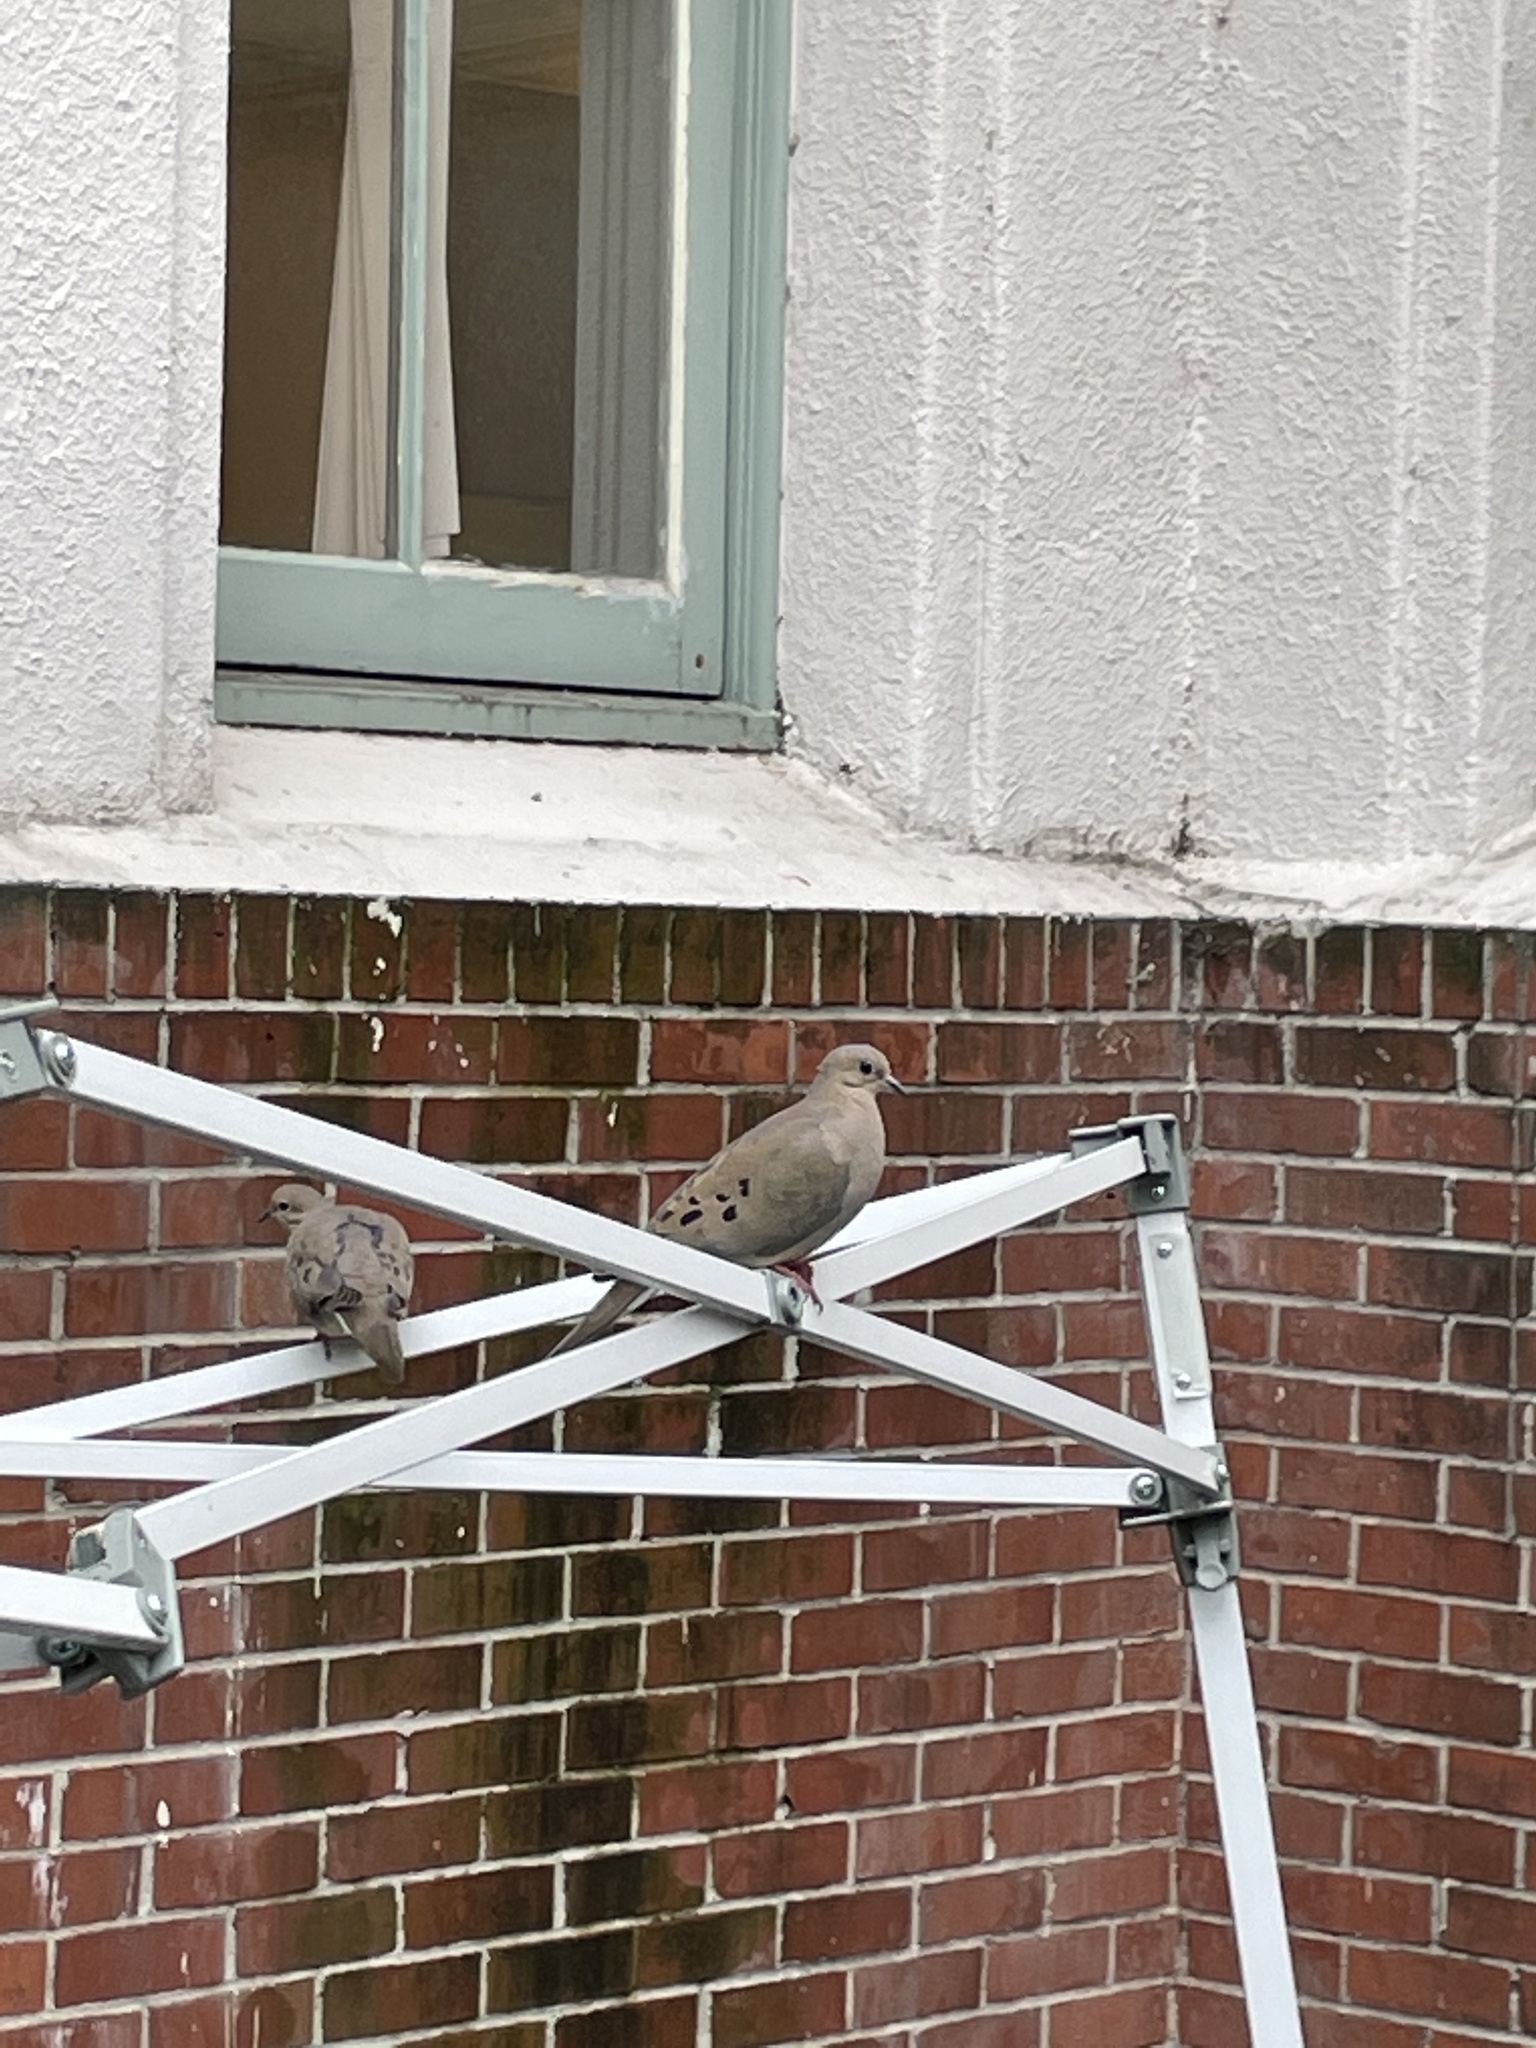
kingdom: Animalia
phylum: Chordata
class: Aves
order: Columbiformes
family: Columbidae
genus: Zenaida
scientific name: Zenaida macroura
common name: Mourning dove
